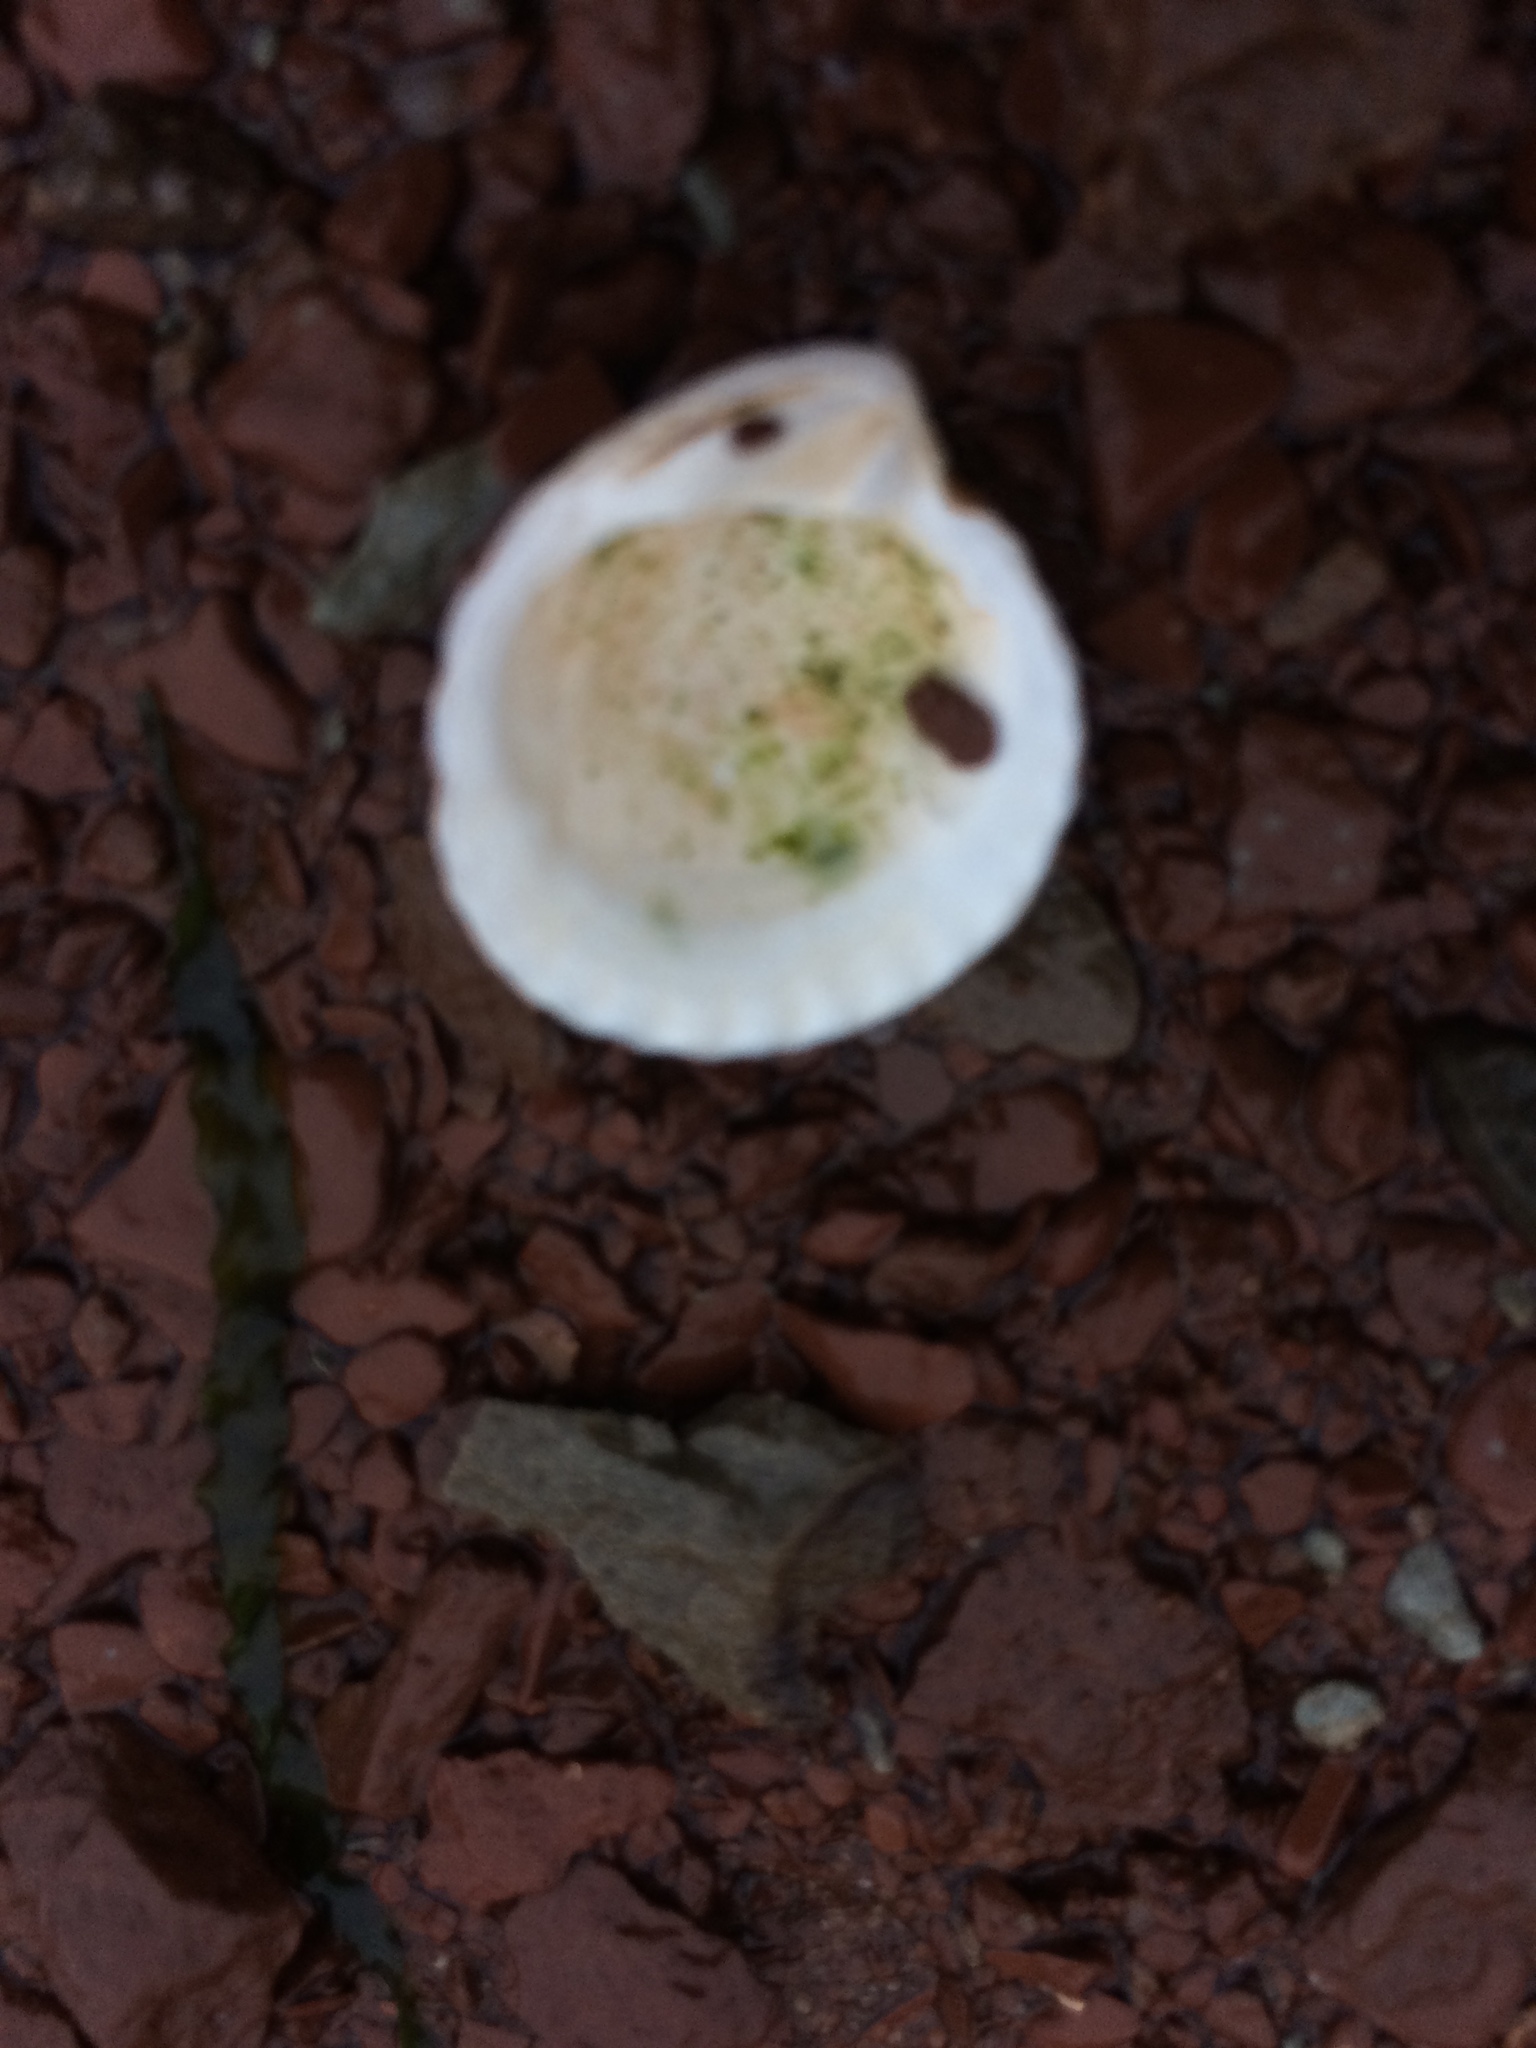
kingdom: Animalia
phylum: Mollusca
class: Bivalvia
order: Carditida
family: Carditidae
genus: Cyclocardia
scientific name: Cyclocardia borealis
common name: Northern cyclocardia
